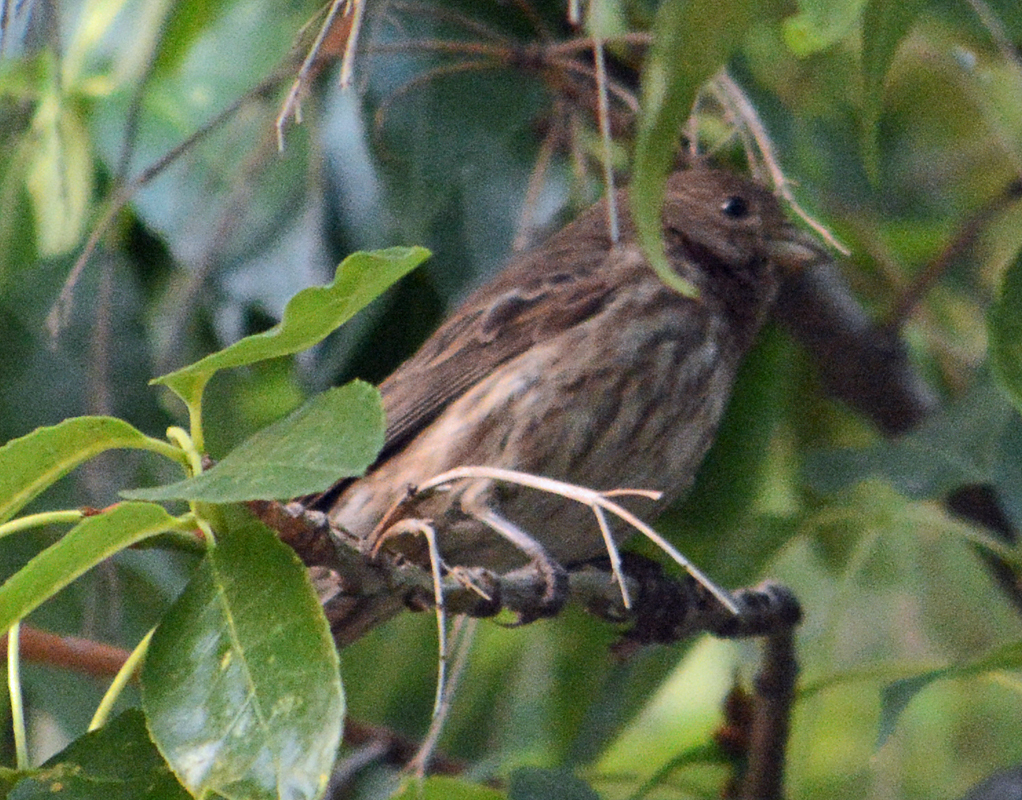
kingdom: Animalia
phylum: Chordata
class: Aves
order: Passeriformes
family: Fringillidae
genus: Haemorhous
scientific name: Haemorhous mexicanus
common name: House finch
